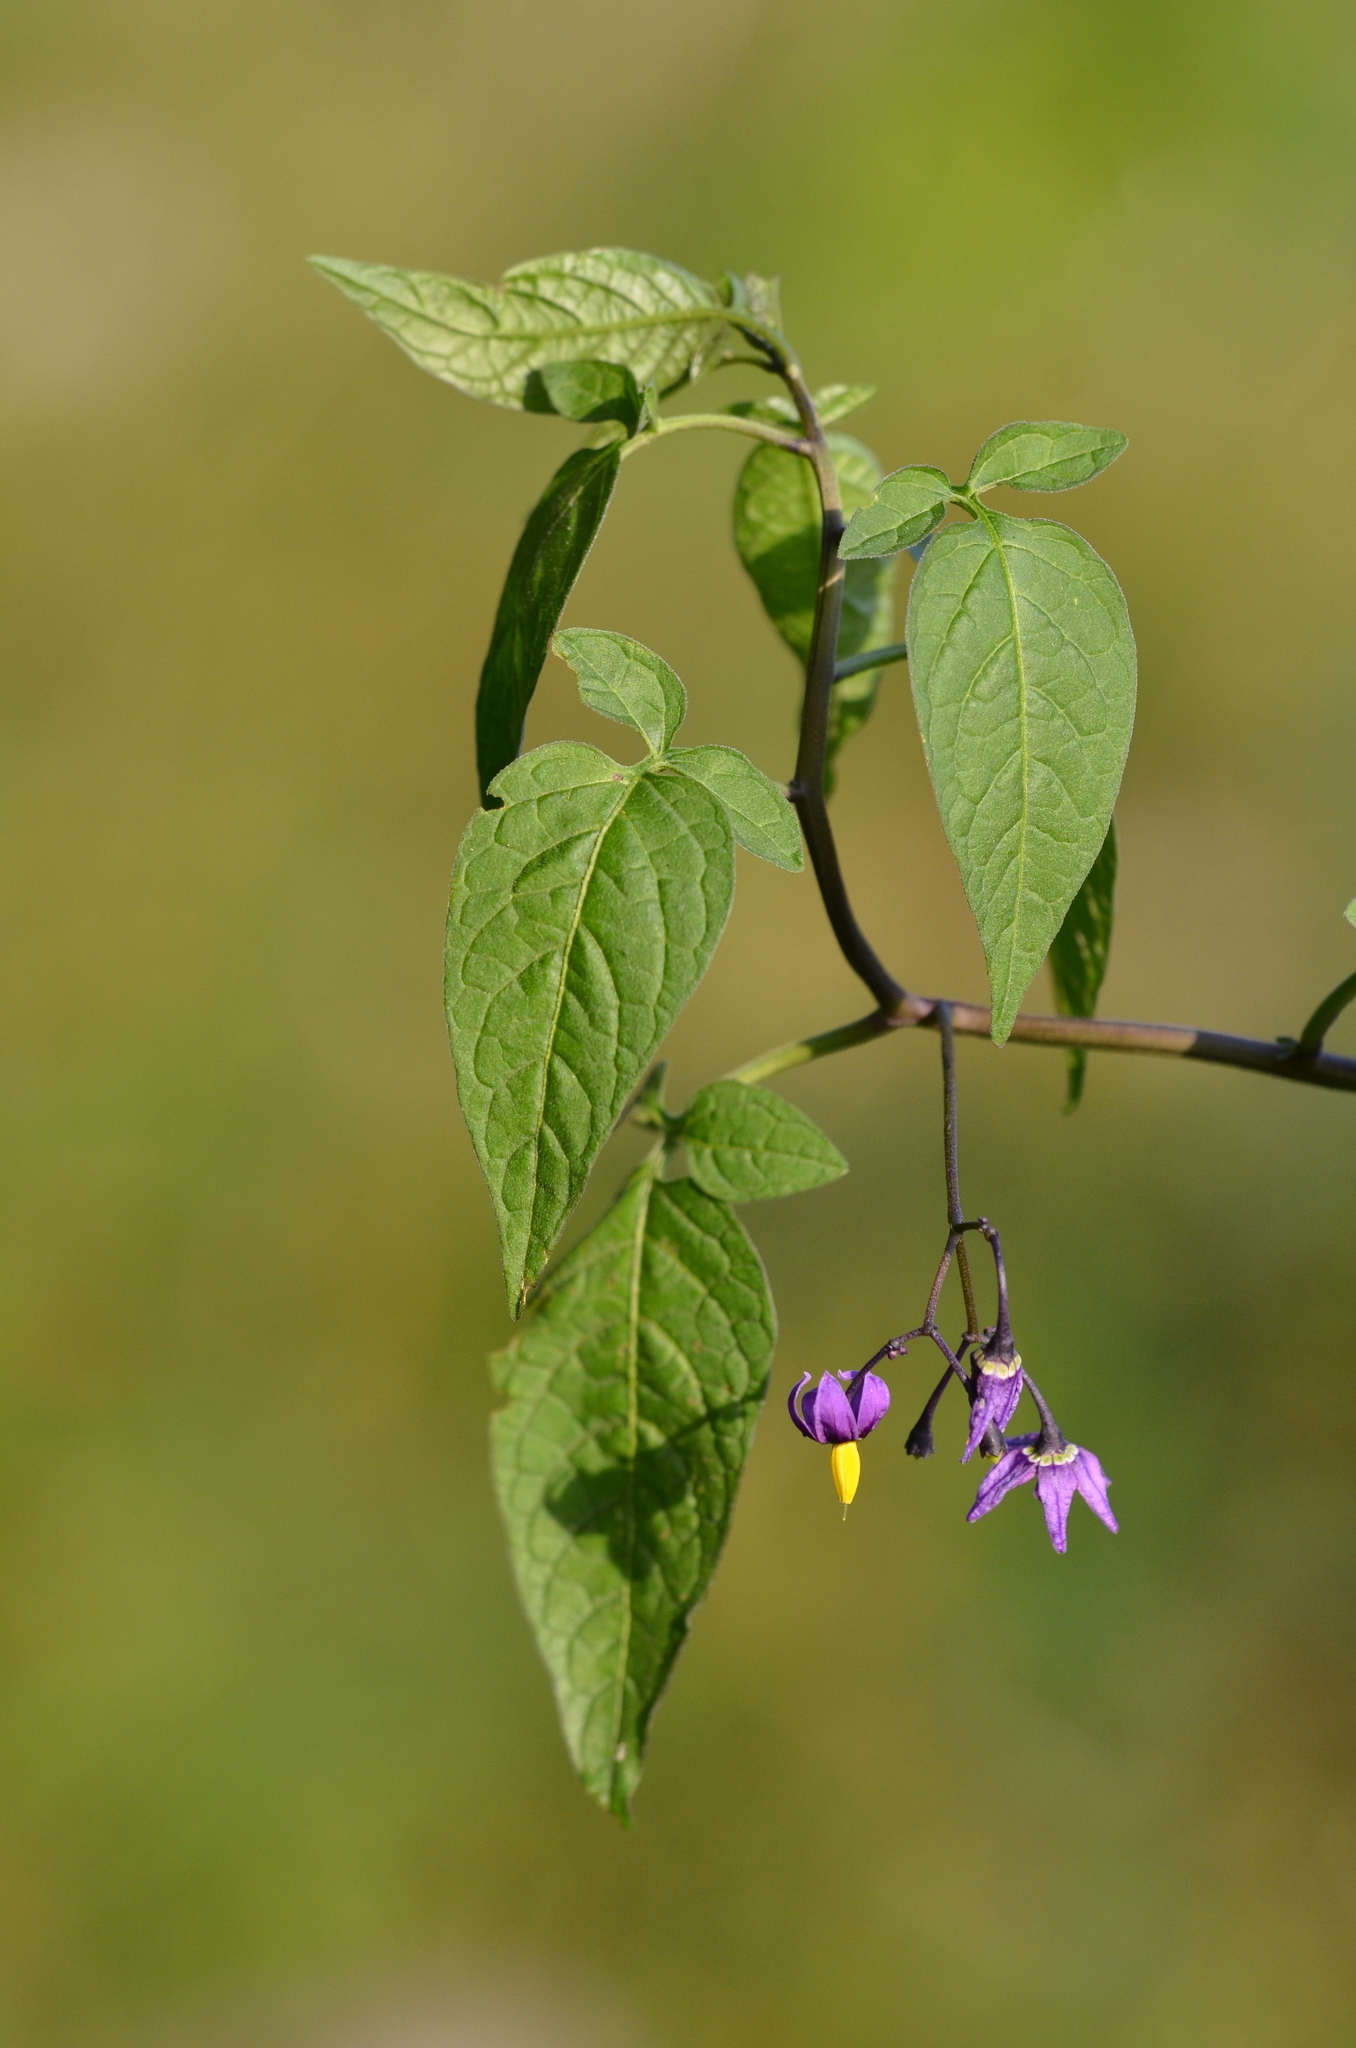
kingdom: Plantae
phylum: Tracheophyta
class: Magnoliopsida
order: Solanales
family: Solanaceae
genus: Solanum
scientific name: Solanum dulcamara
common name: Climbing nightshade
